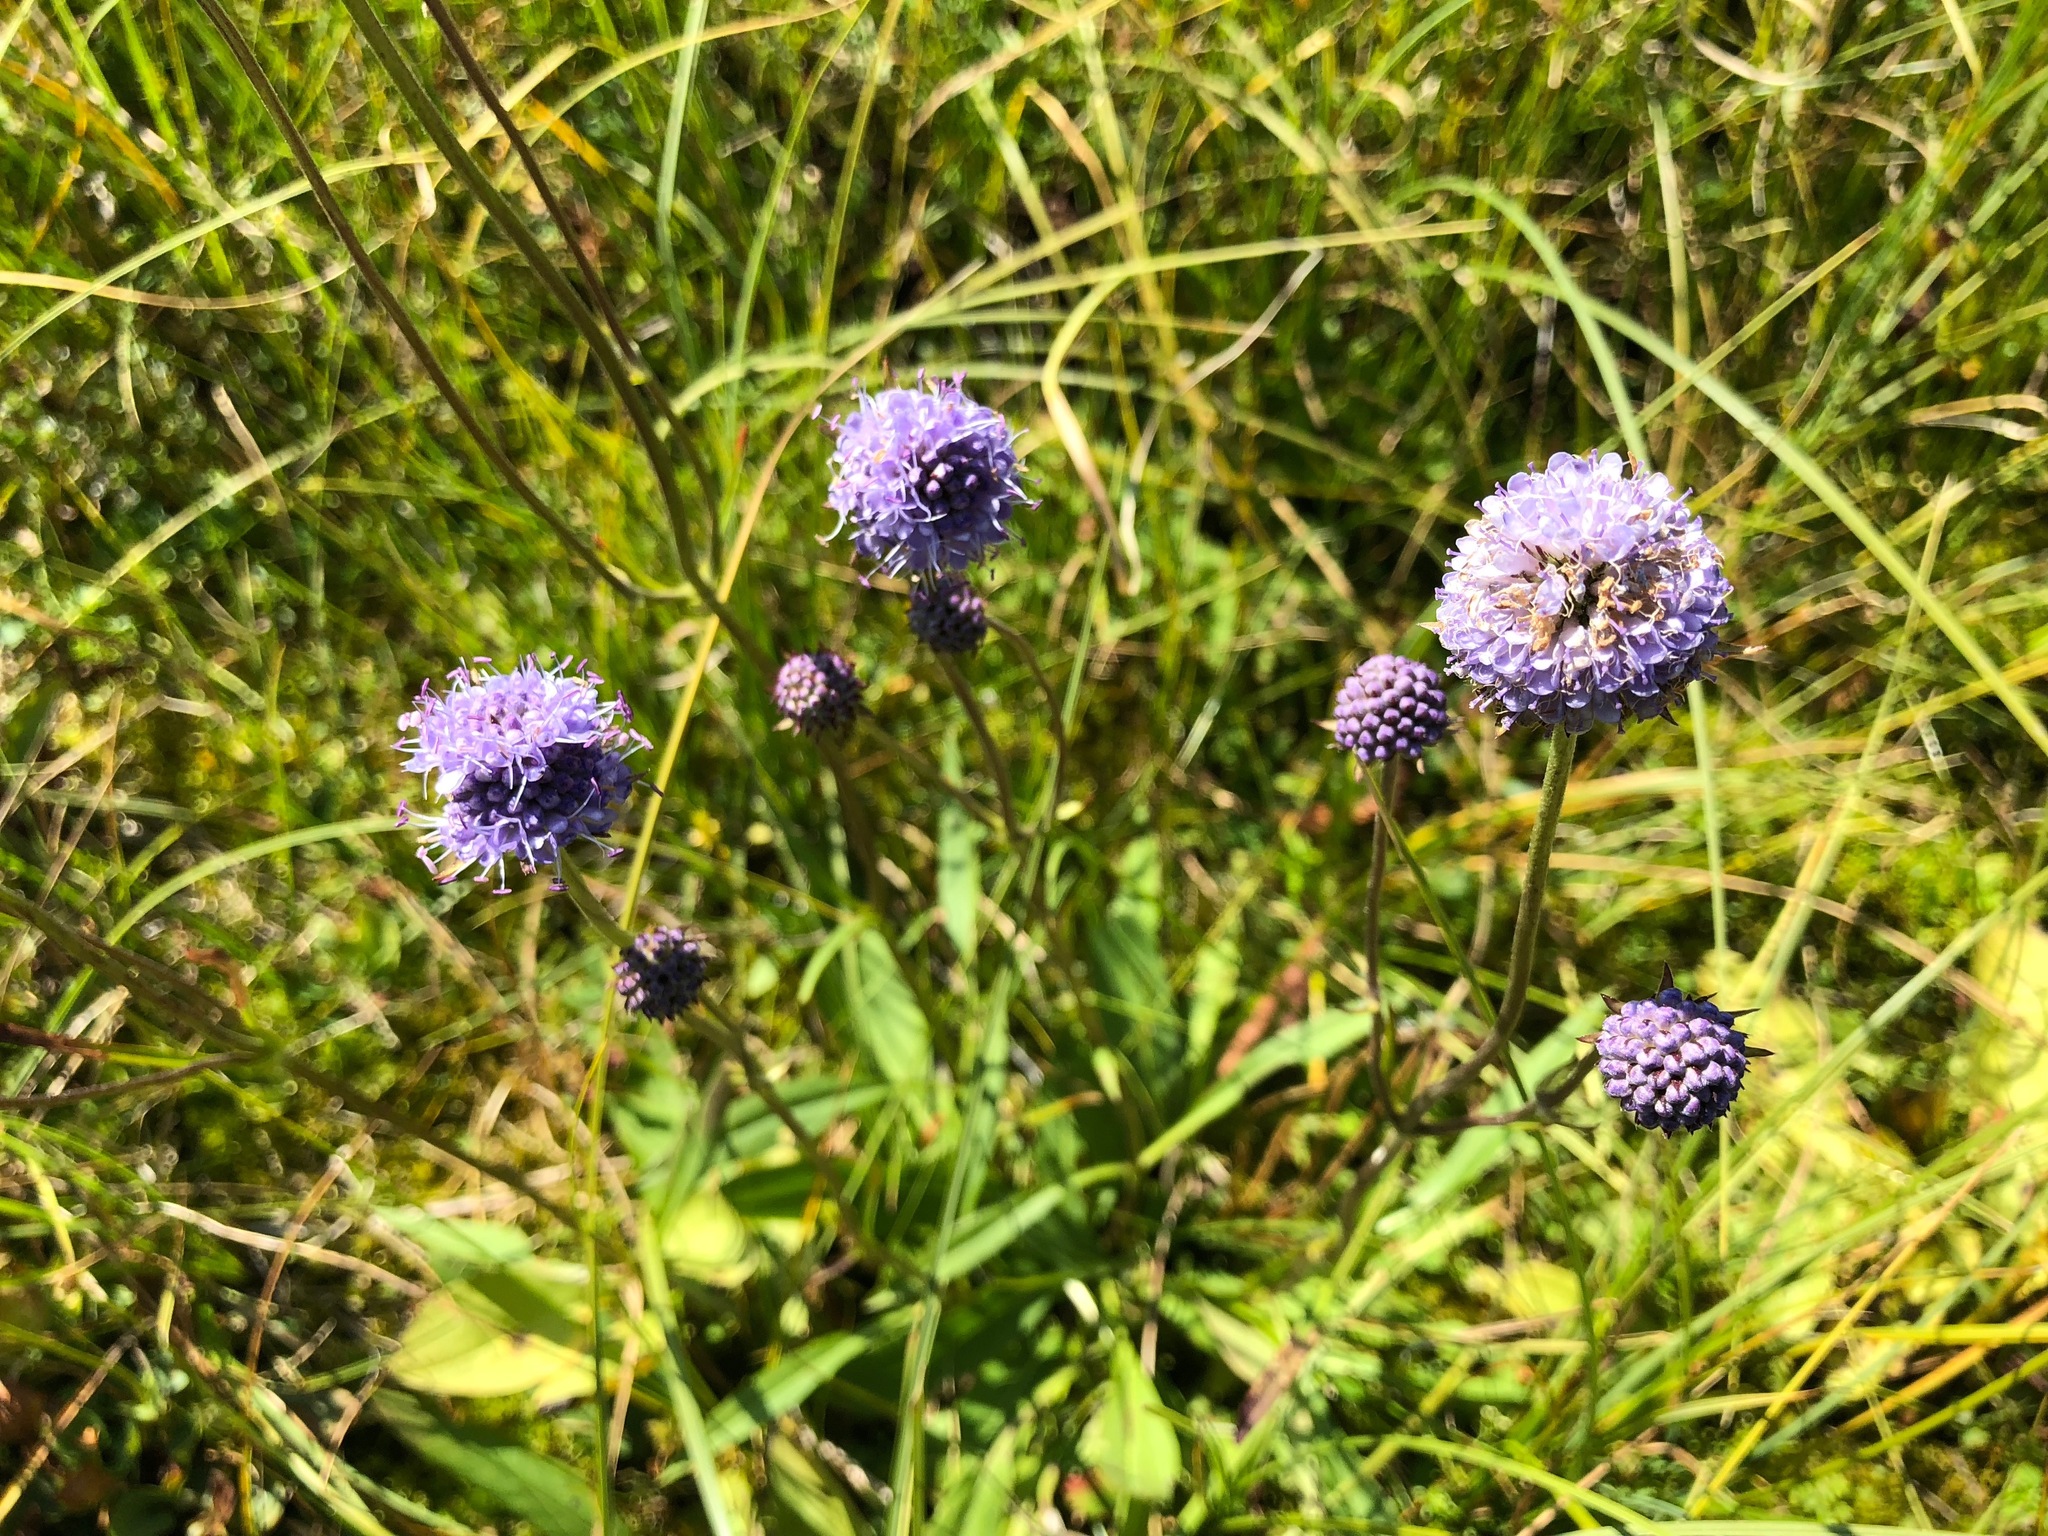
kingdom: Plantae
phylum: Tracheophyta
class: Magnoliopsida
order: Dipsacales
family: Caprifoliaceae
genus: Succisa
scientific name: Succisa pratensis
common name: Devil's-bit
